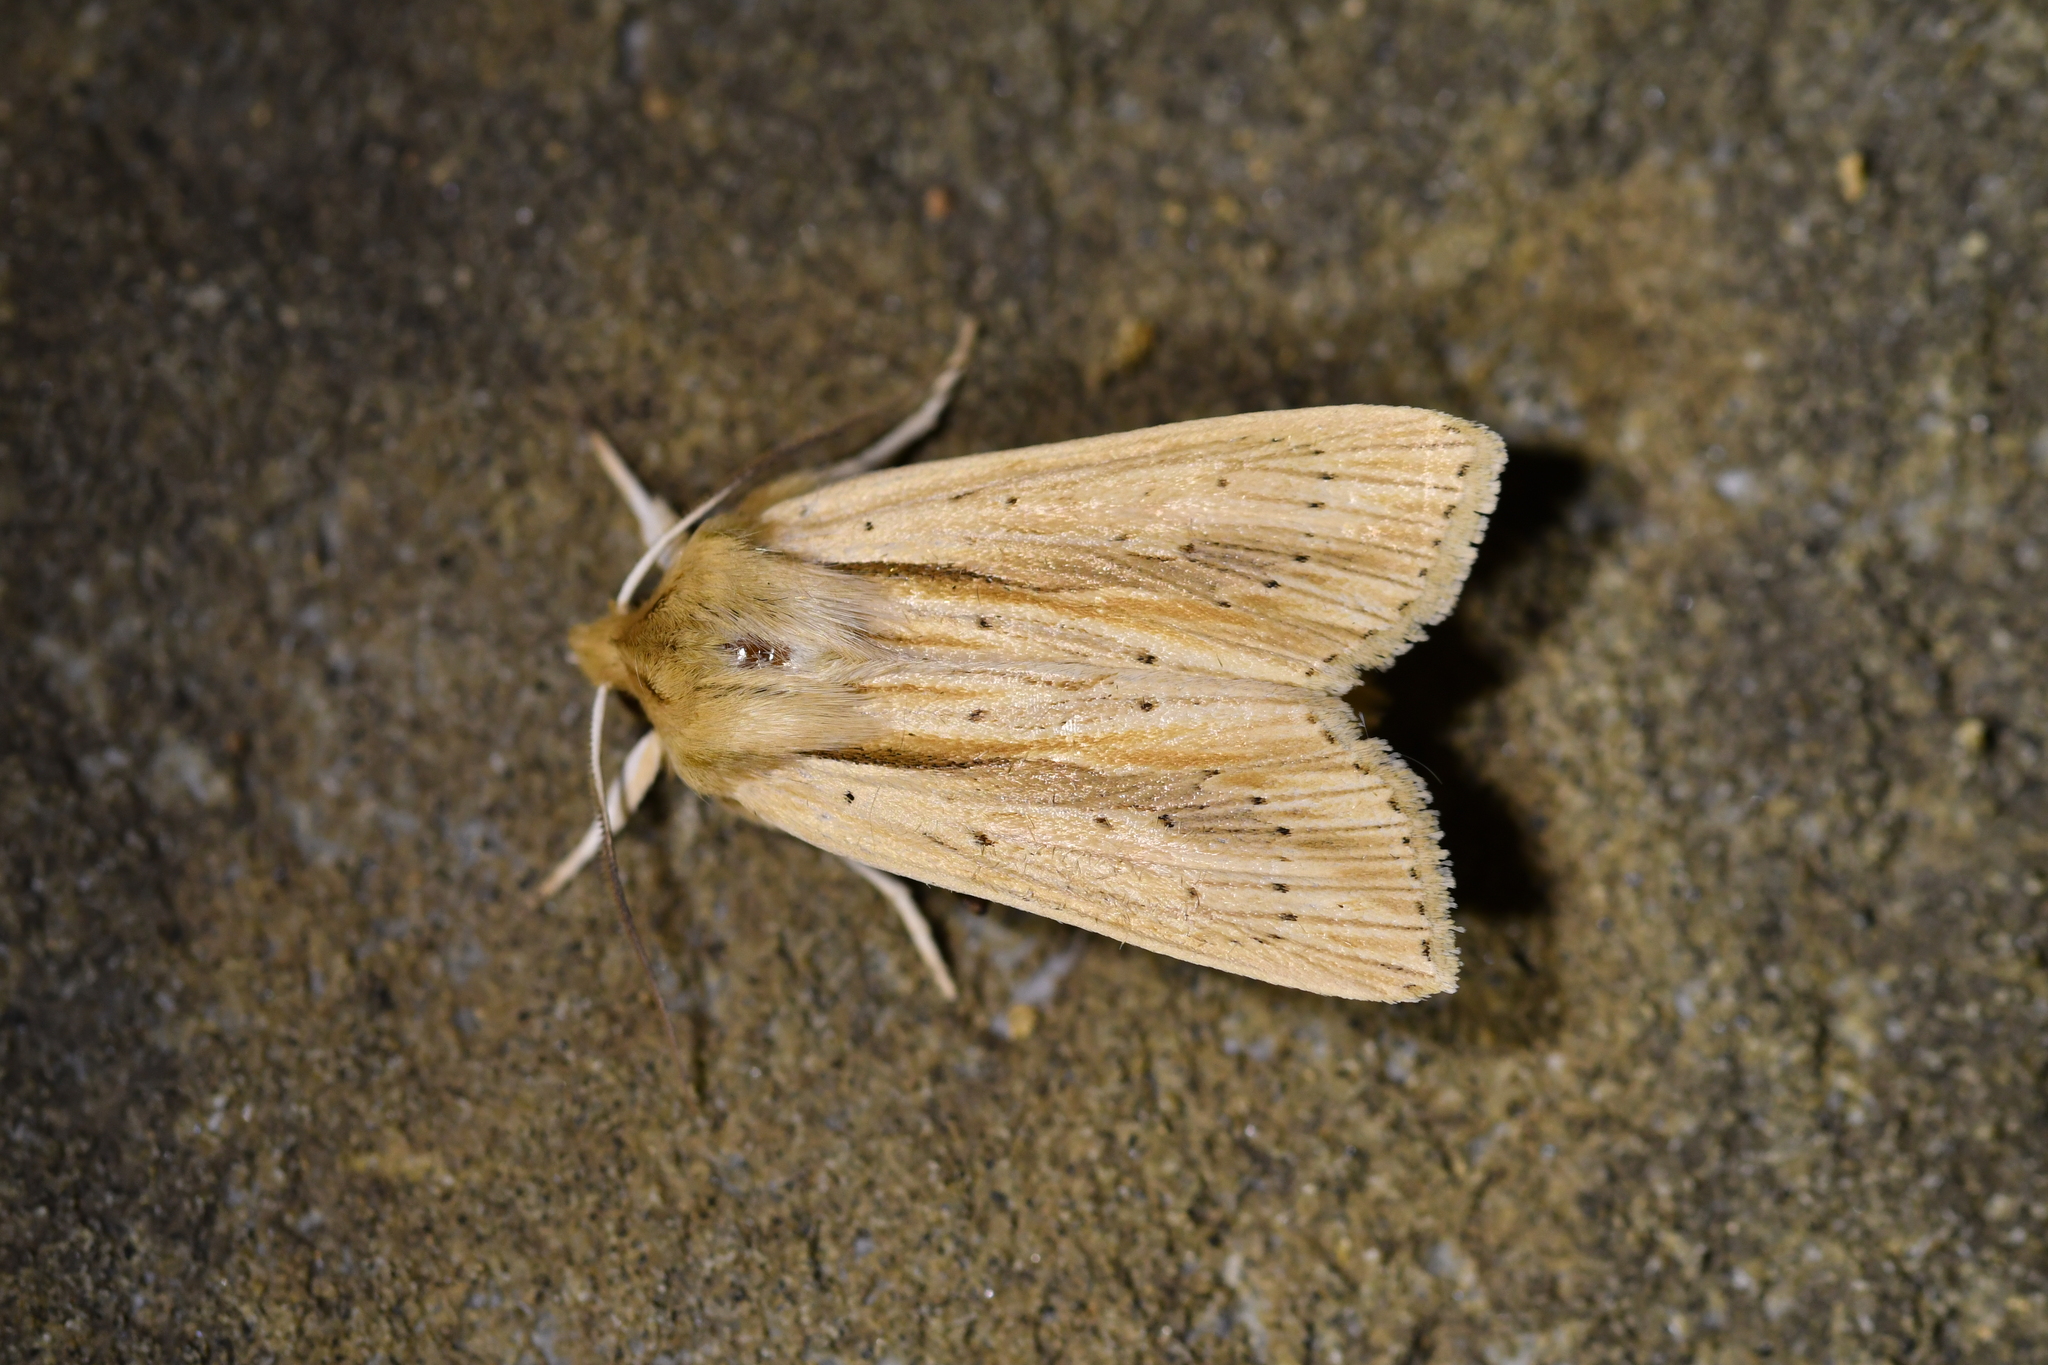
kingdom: Animalia
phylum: Arthropoda
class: Insecta
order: Lepidoptera
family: Noctuidae
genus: Ichneutica
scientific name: Ichneutica semivittata
